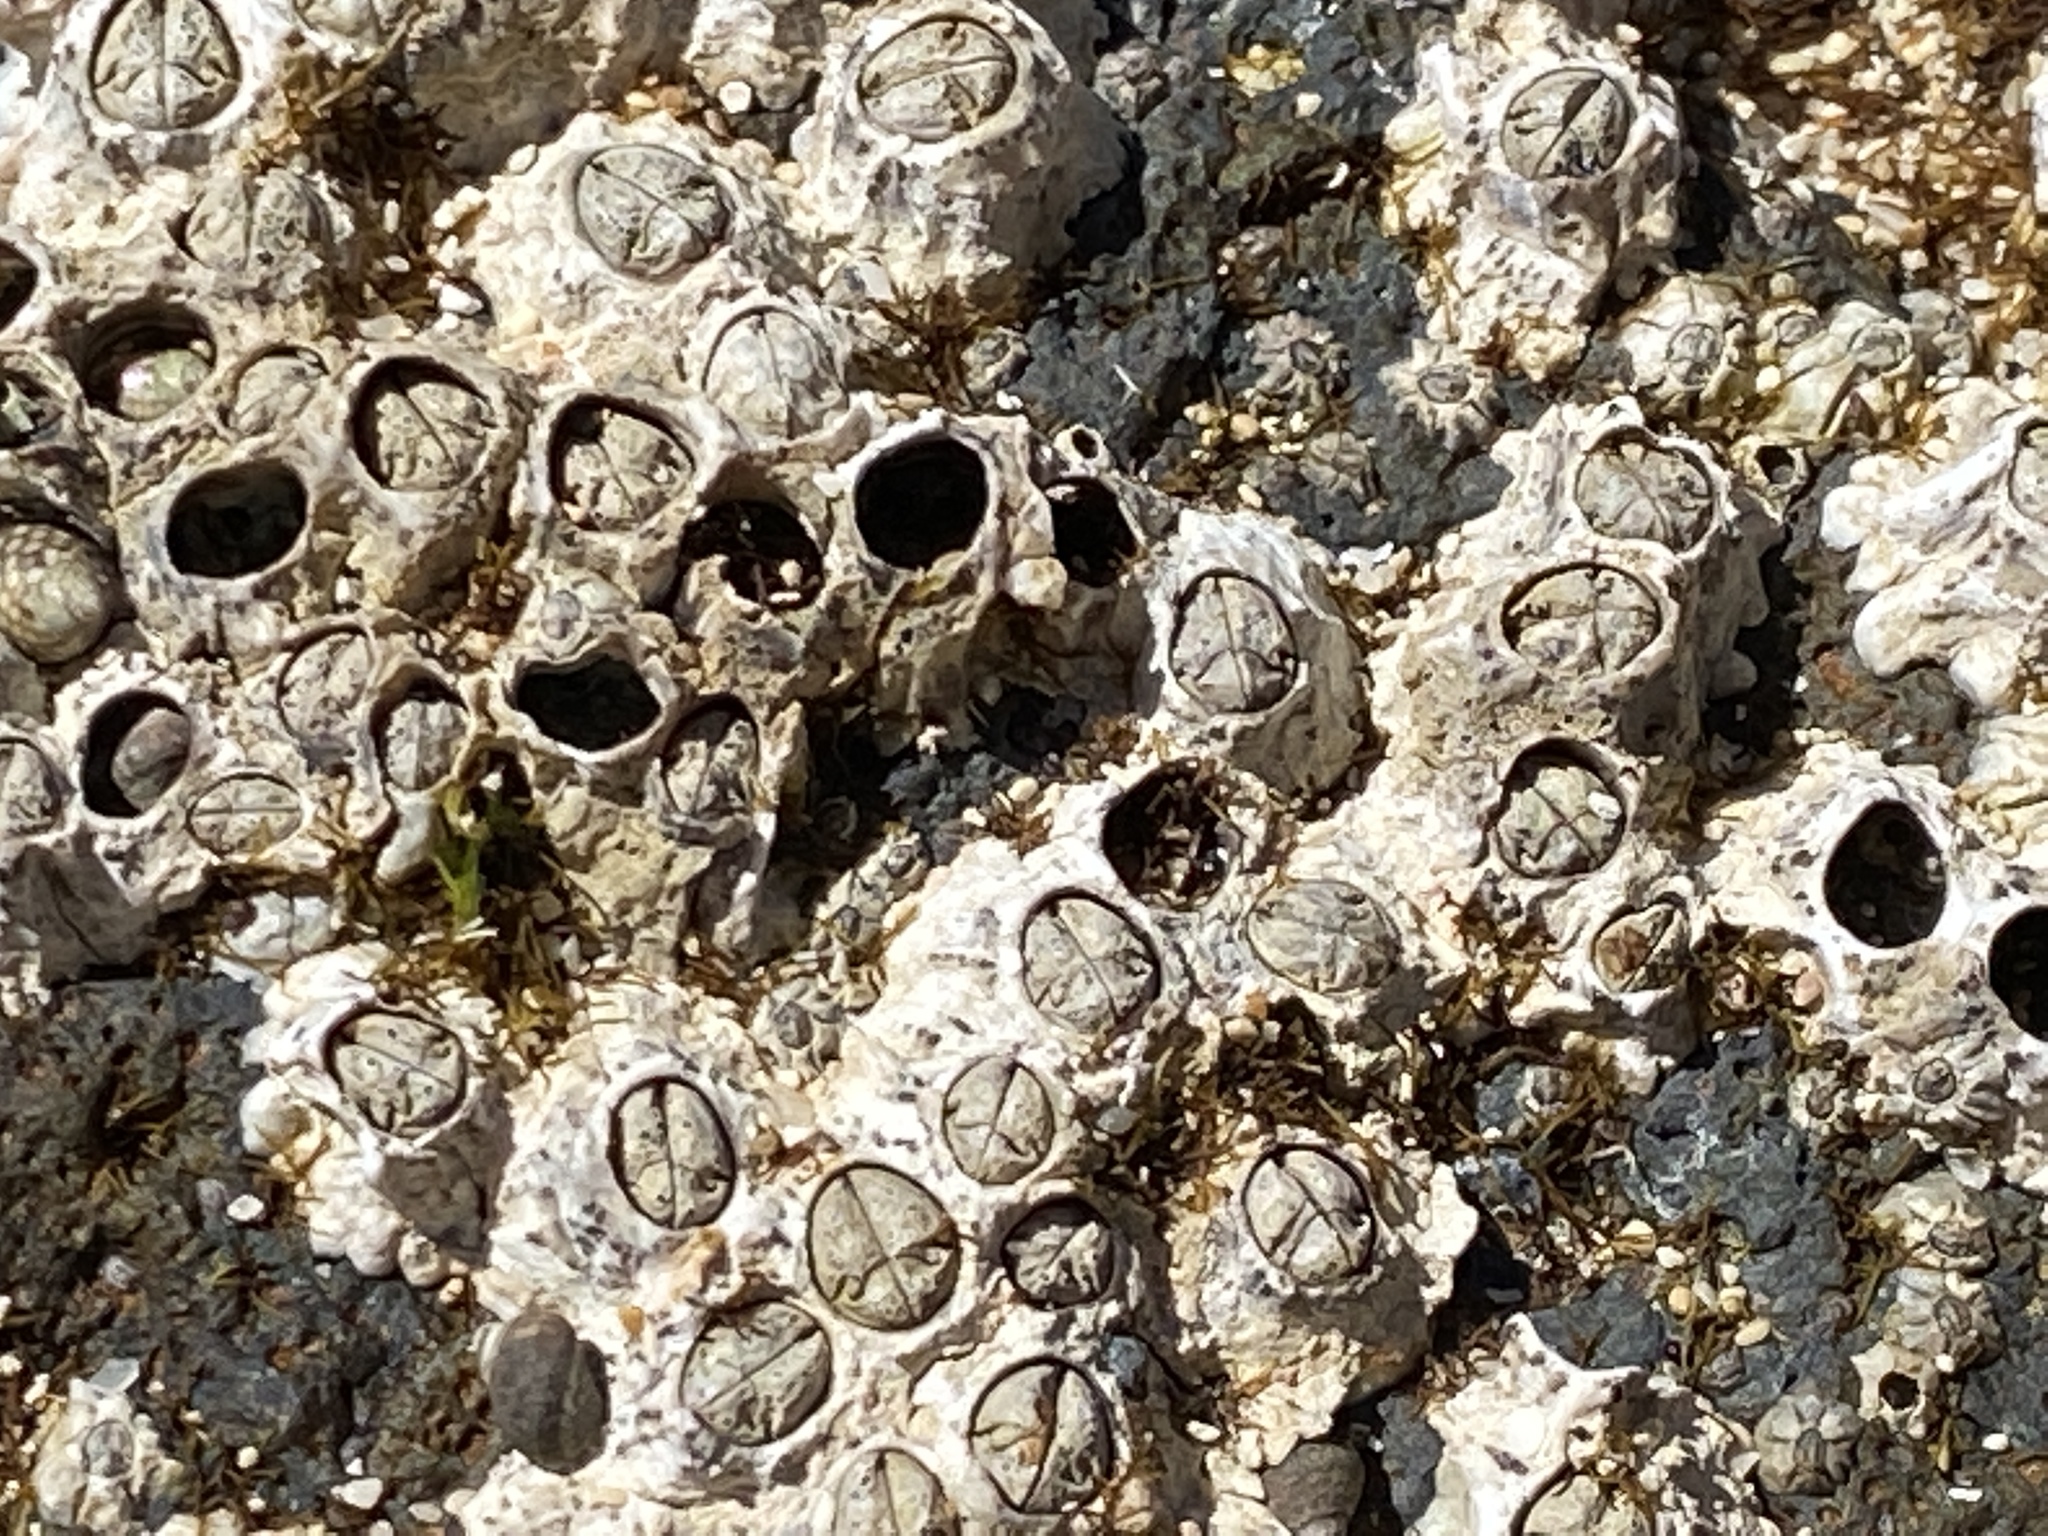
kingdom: Animalia
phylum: Arthropoda
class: Maxillopoda
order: Sessilia
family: Chthamalidae
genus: Chthamalus
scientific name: Chthamalus stellatus
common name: Poli's stellate barnacle
